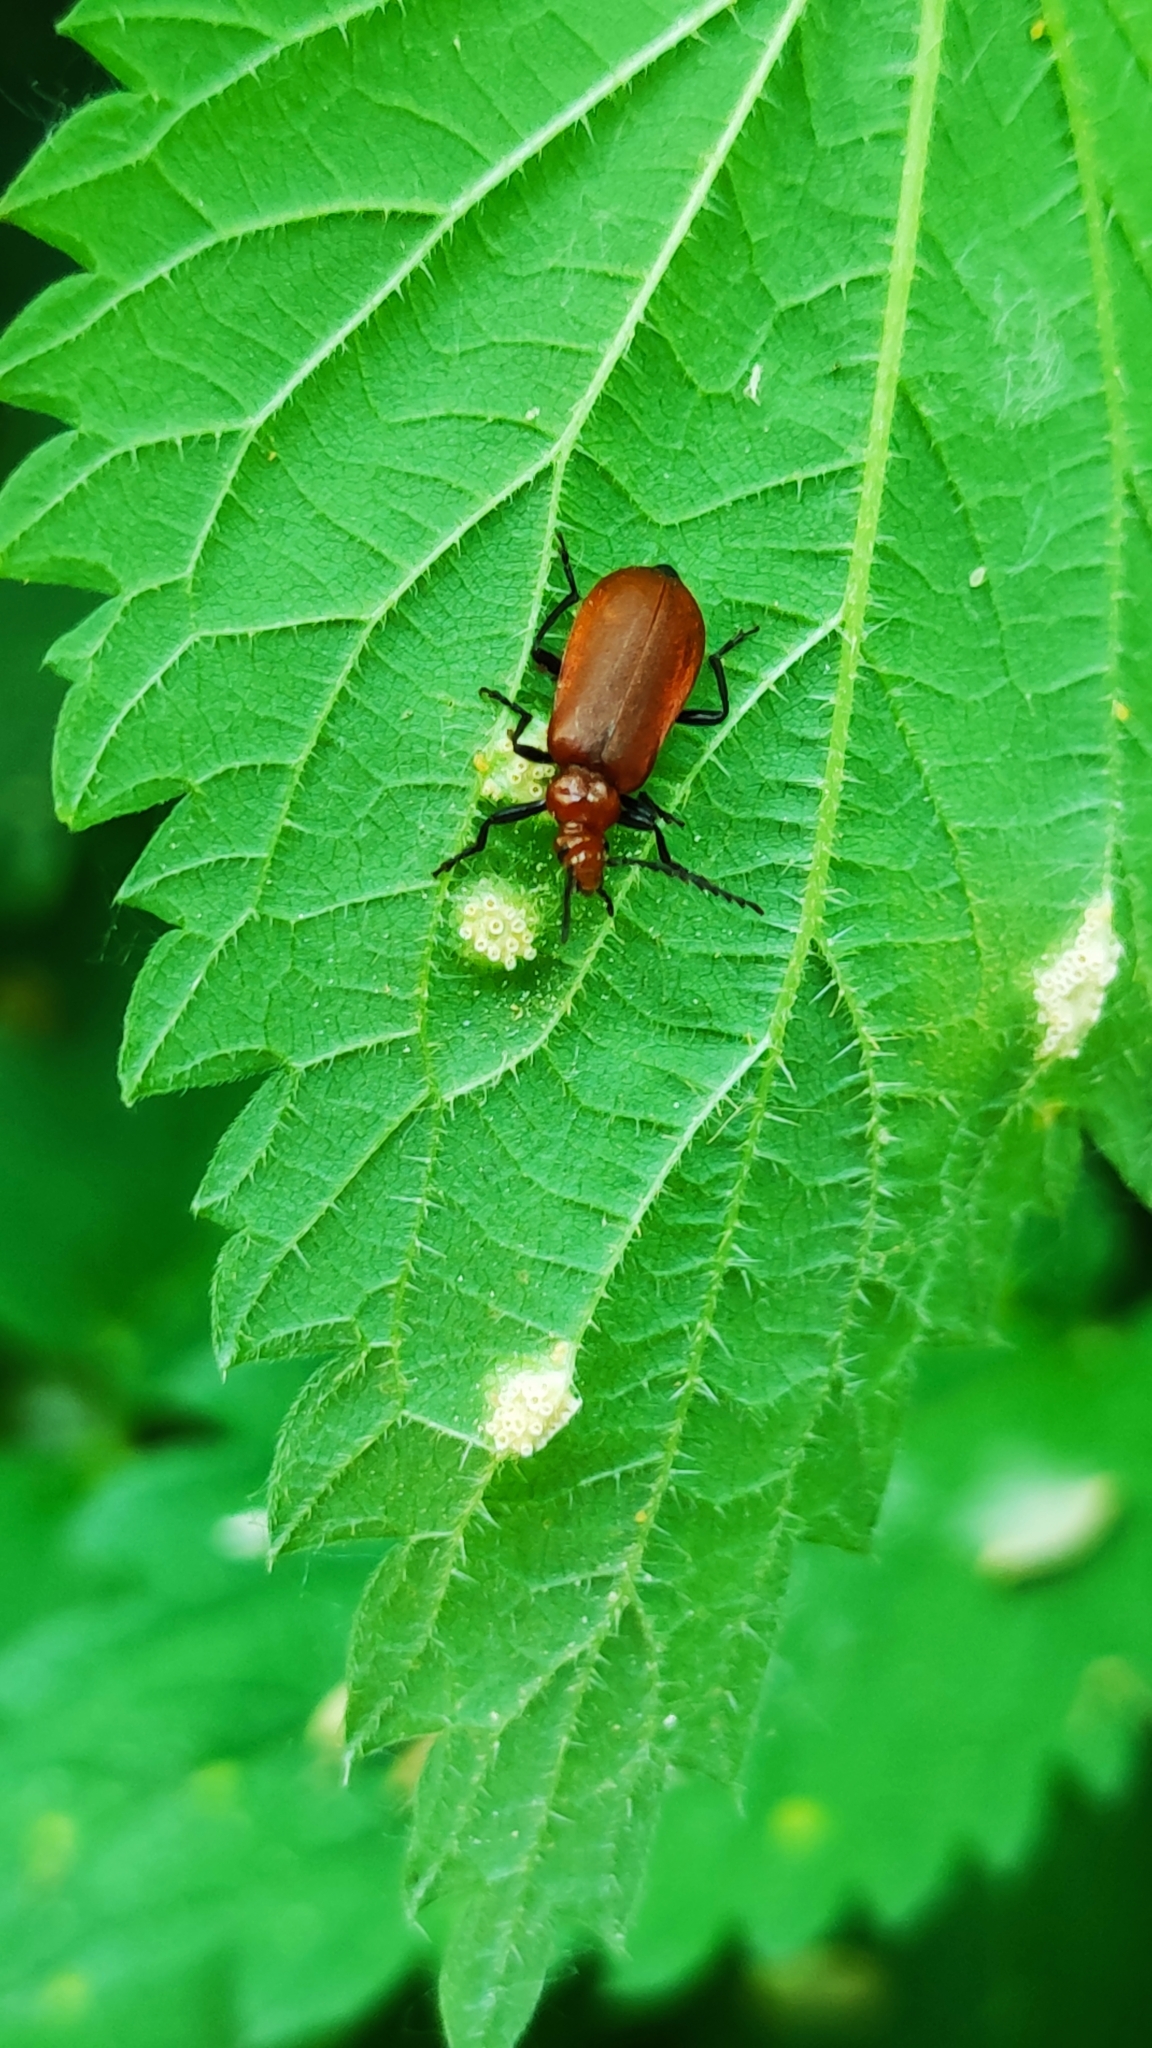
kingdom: Animalia
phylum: Arthropoda
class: Insecta
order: Coleoptera
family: Pyrochroidae
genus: Pyrochroa
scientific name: Pyrochroa serraticornis
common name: Red-headed cardinal beetle
